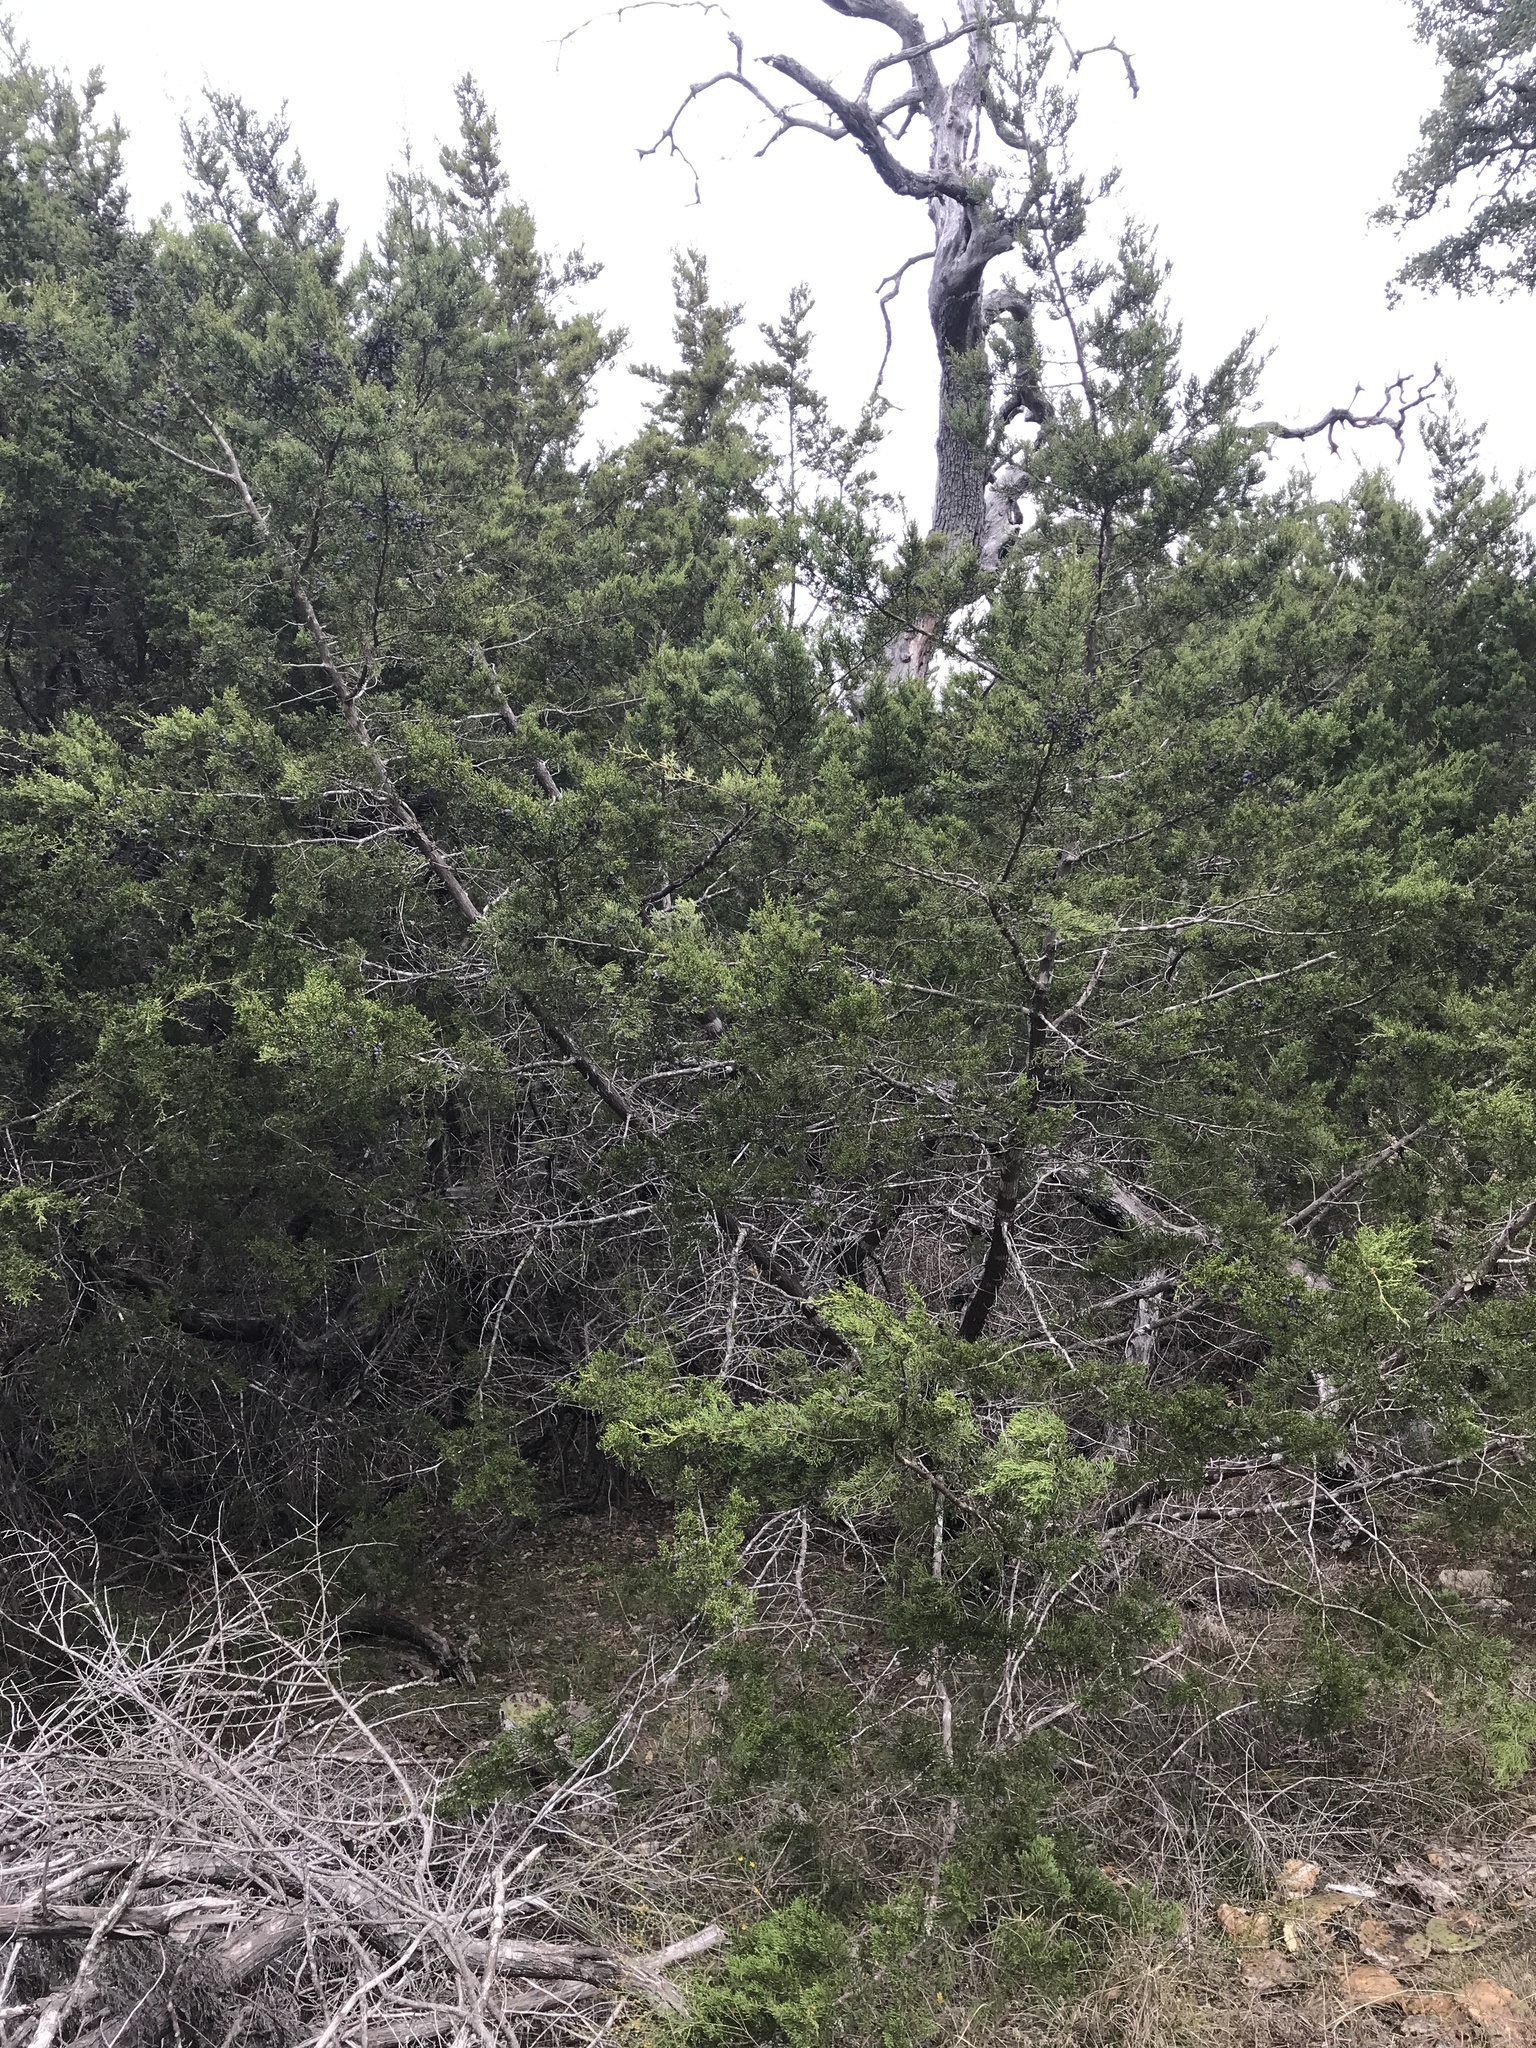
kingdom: Plantae
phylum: Tracheophyta
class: Pinopsida
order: Pinales
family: Cupressaceae
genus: Juniperus
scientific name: Juniperus ashei
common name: Mexican juniper
